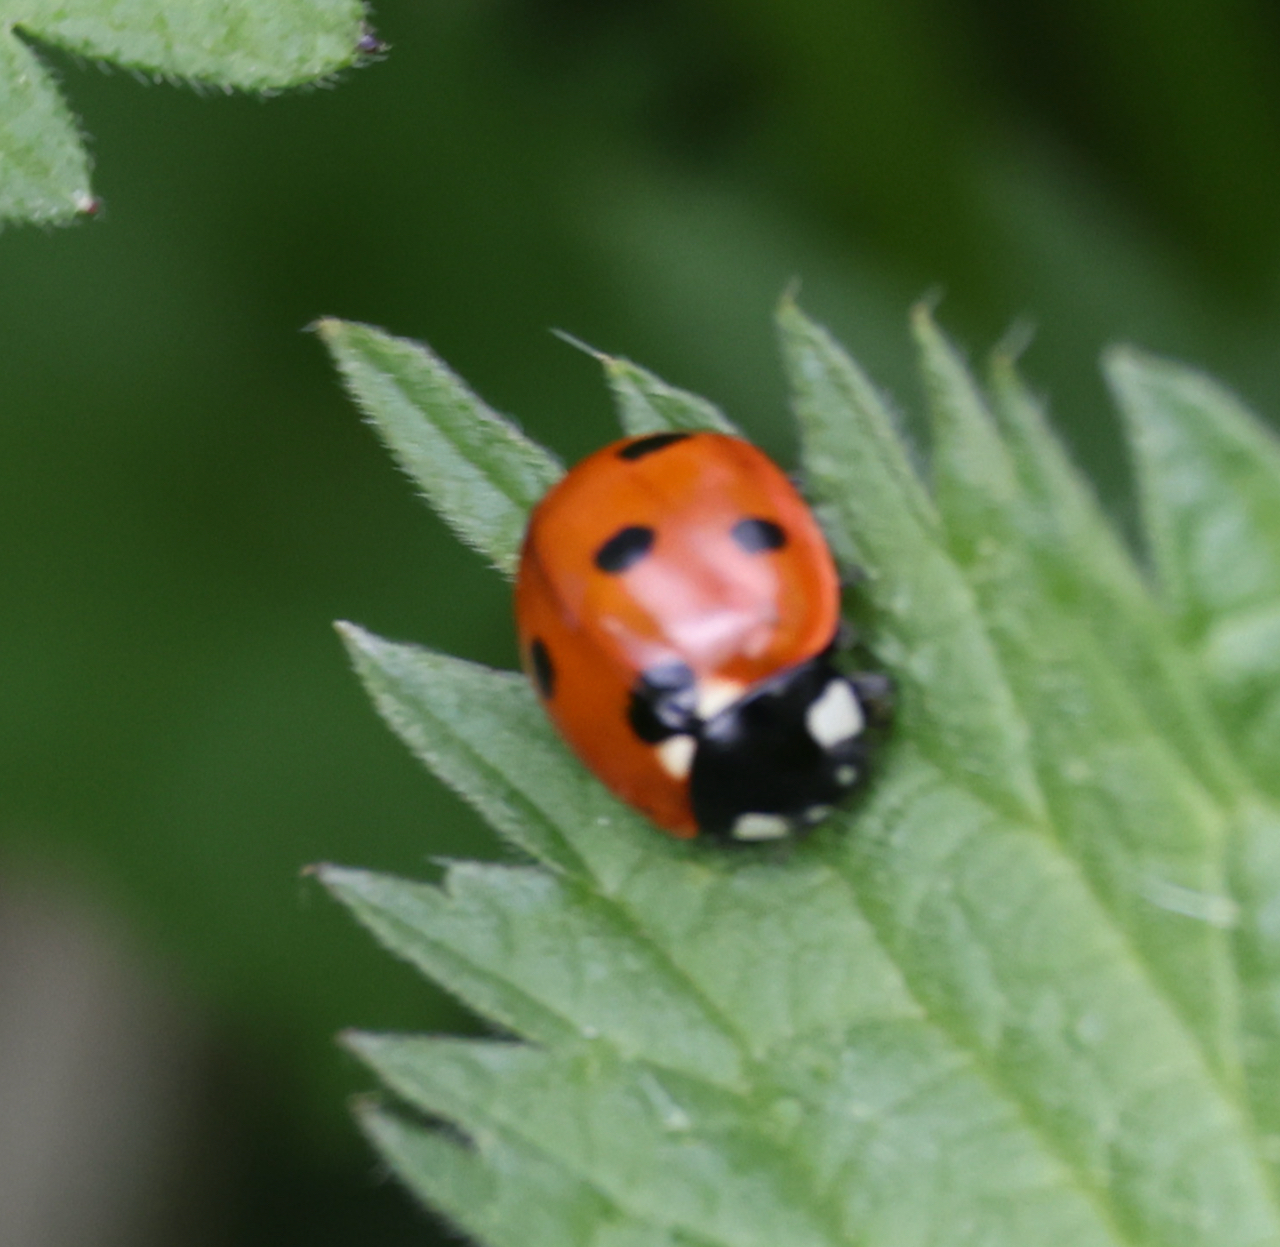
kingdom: Animalia
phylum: Arthropoda
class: Insecta
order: Coleoptera
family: Coccinellidae
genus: Coccinella
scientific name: Coccinella septempunctata
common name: Sevenspotted lady beetle
